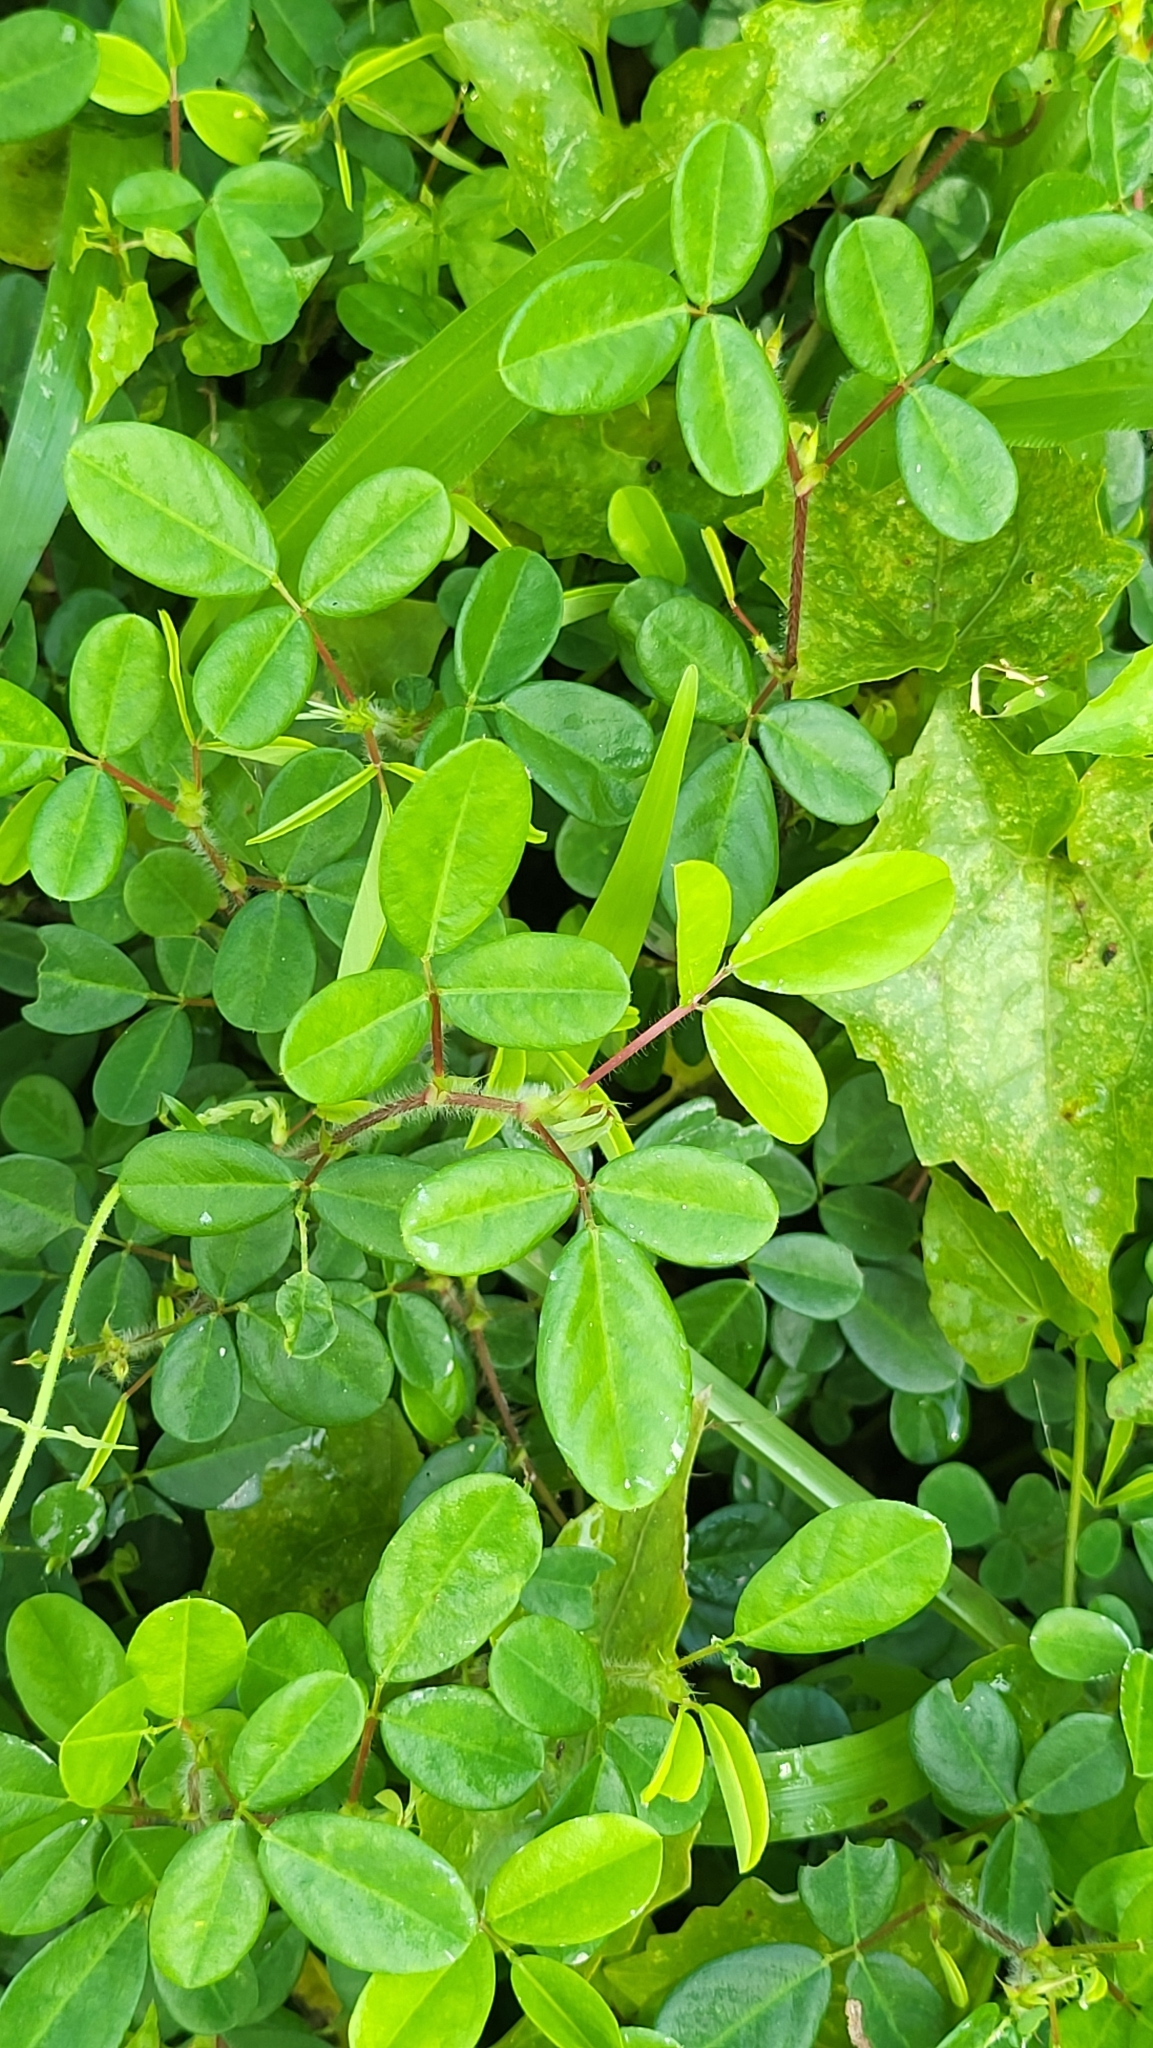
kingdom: Plantae
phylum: Tracheophyta
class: Magnoliopsida
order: Fabales
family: Fabaceae
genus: Grona
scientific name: Grona heterophylla
